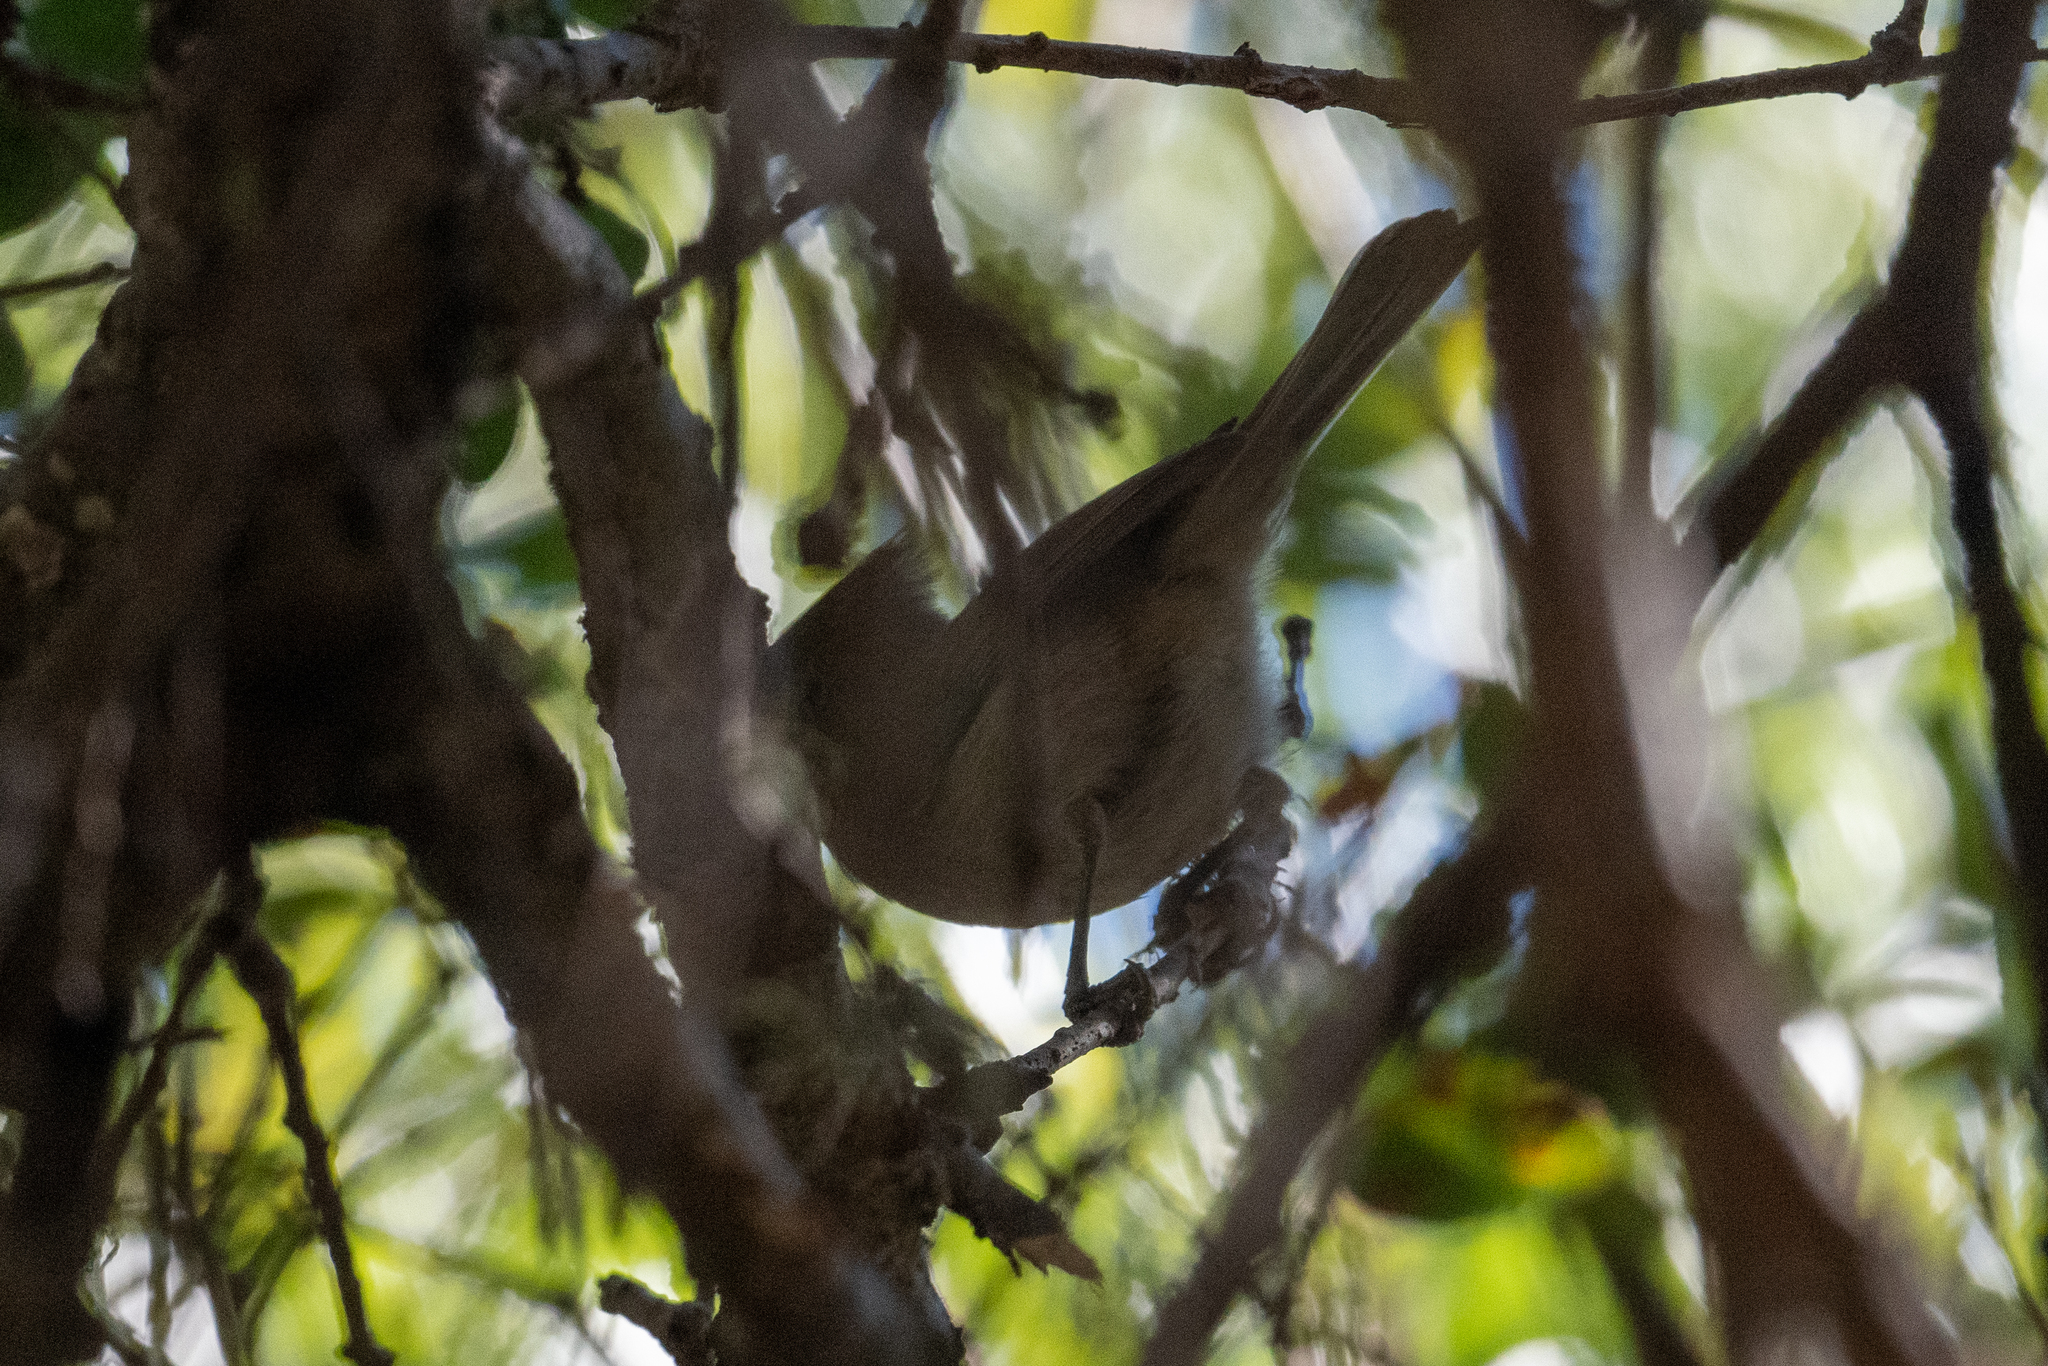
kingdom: Animalia
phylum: Chordata
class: Aves
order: Passeriformes
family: Paridae
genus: Baeolophus
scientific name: Baeolophus inornatus
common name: Oak titmouse
